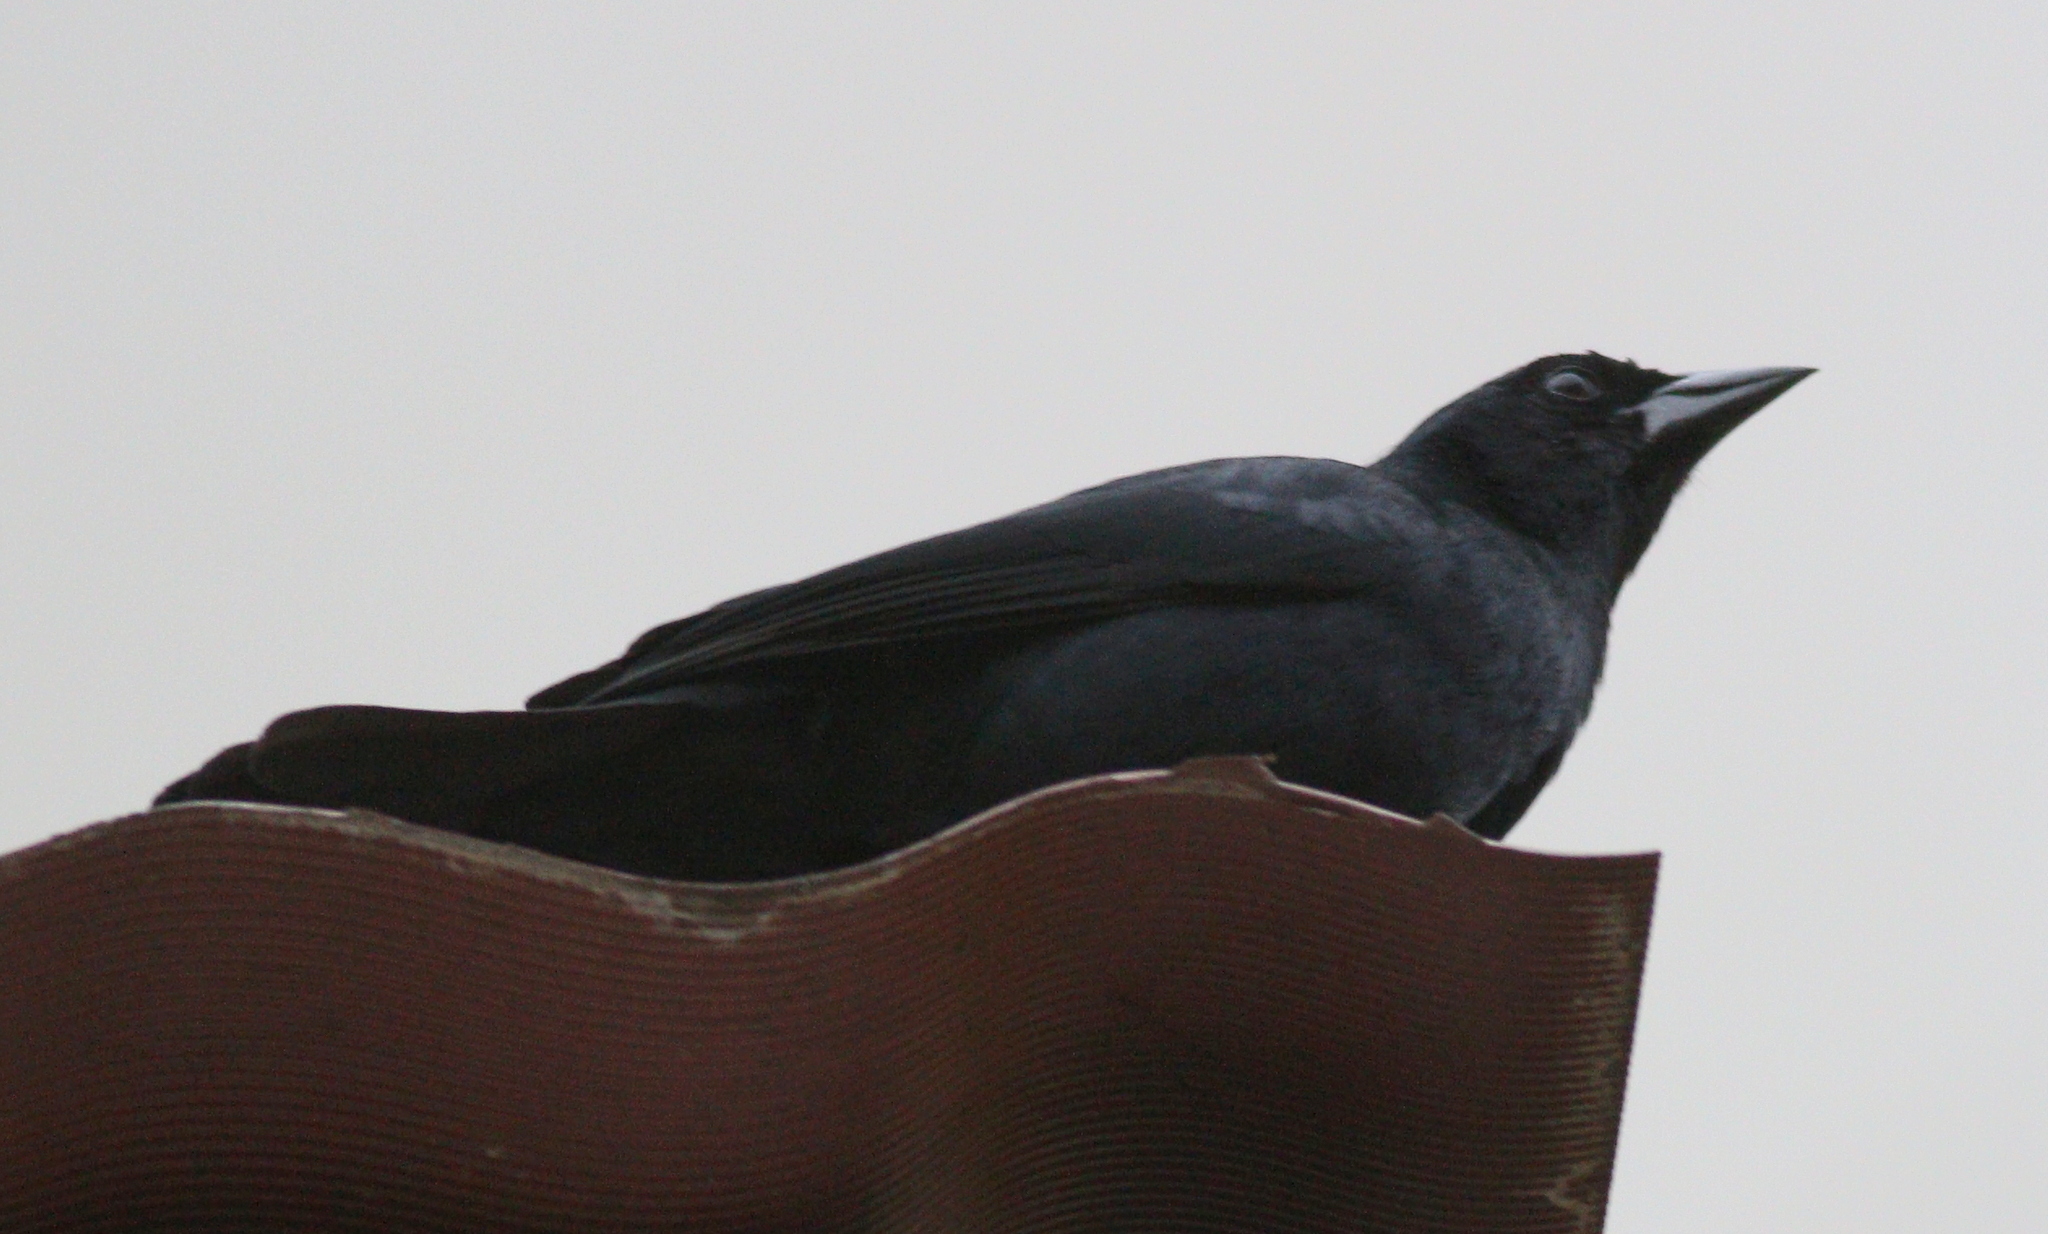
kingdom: Animalia
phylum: Chordata
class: Aves
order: Passeriformes
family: Icteridae
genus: Dives
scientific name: Dives warczewiczi
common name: Scrub blackbird
